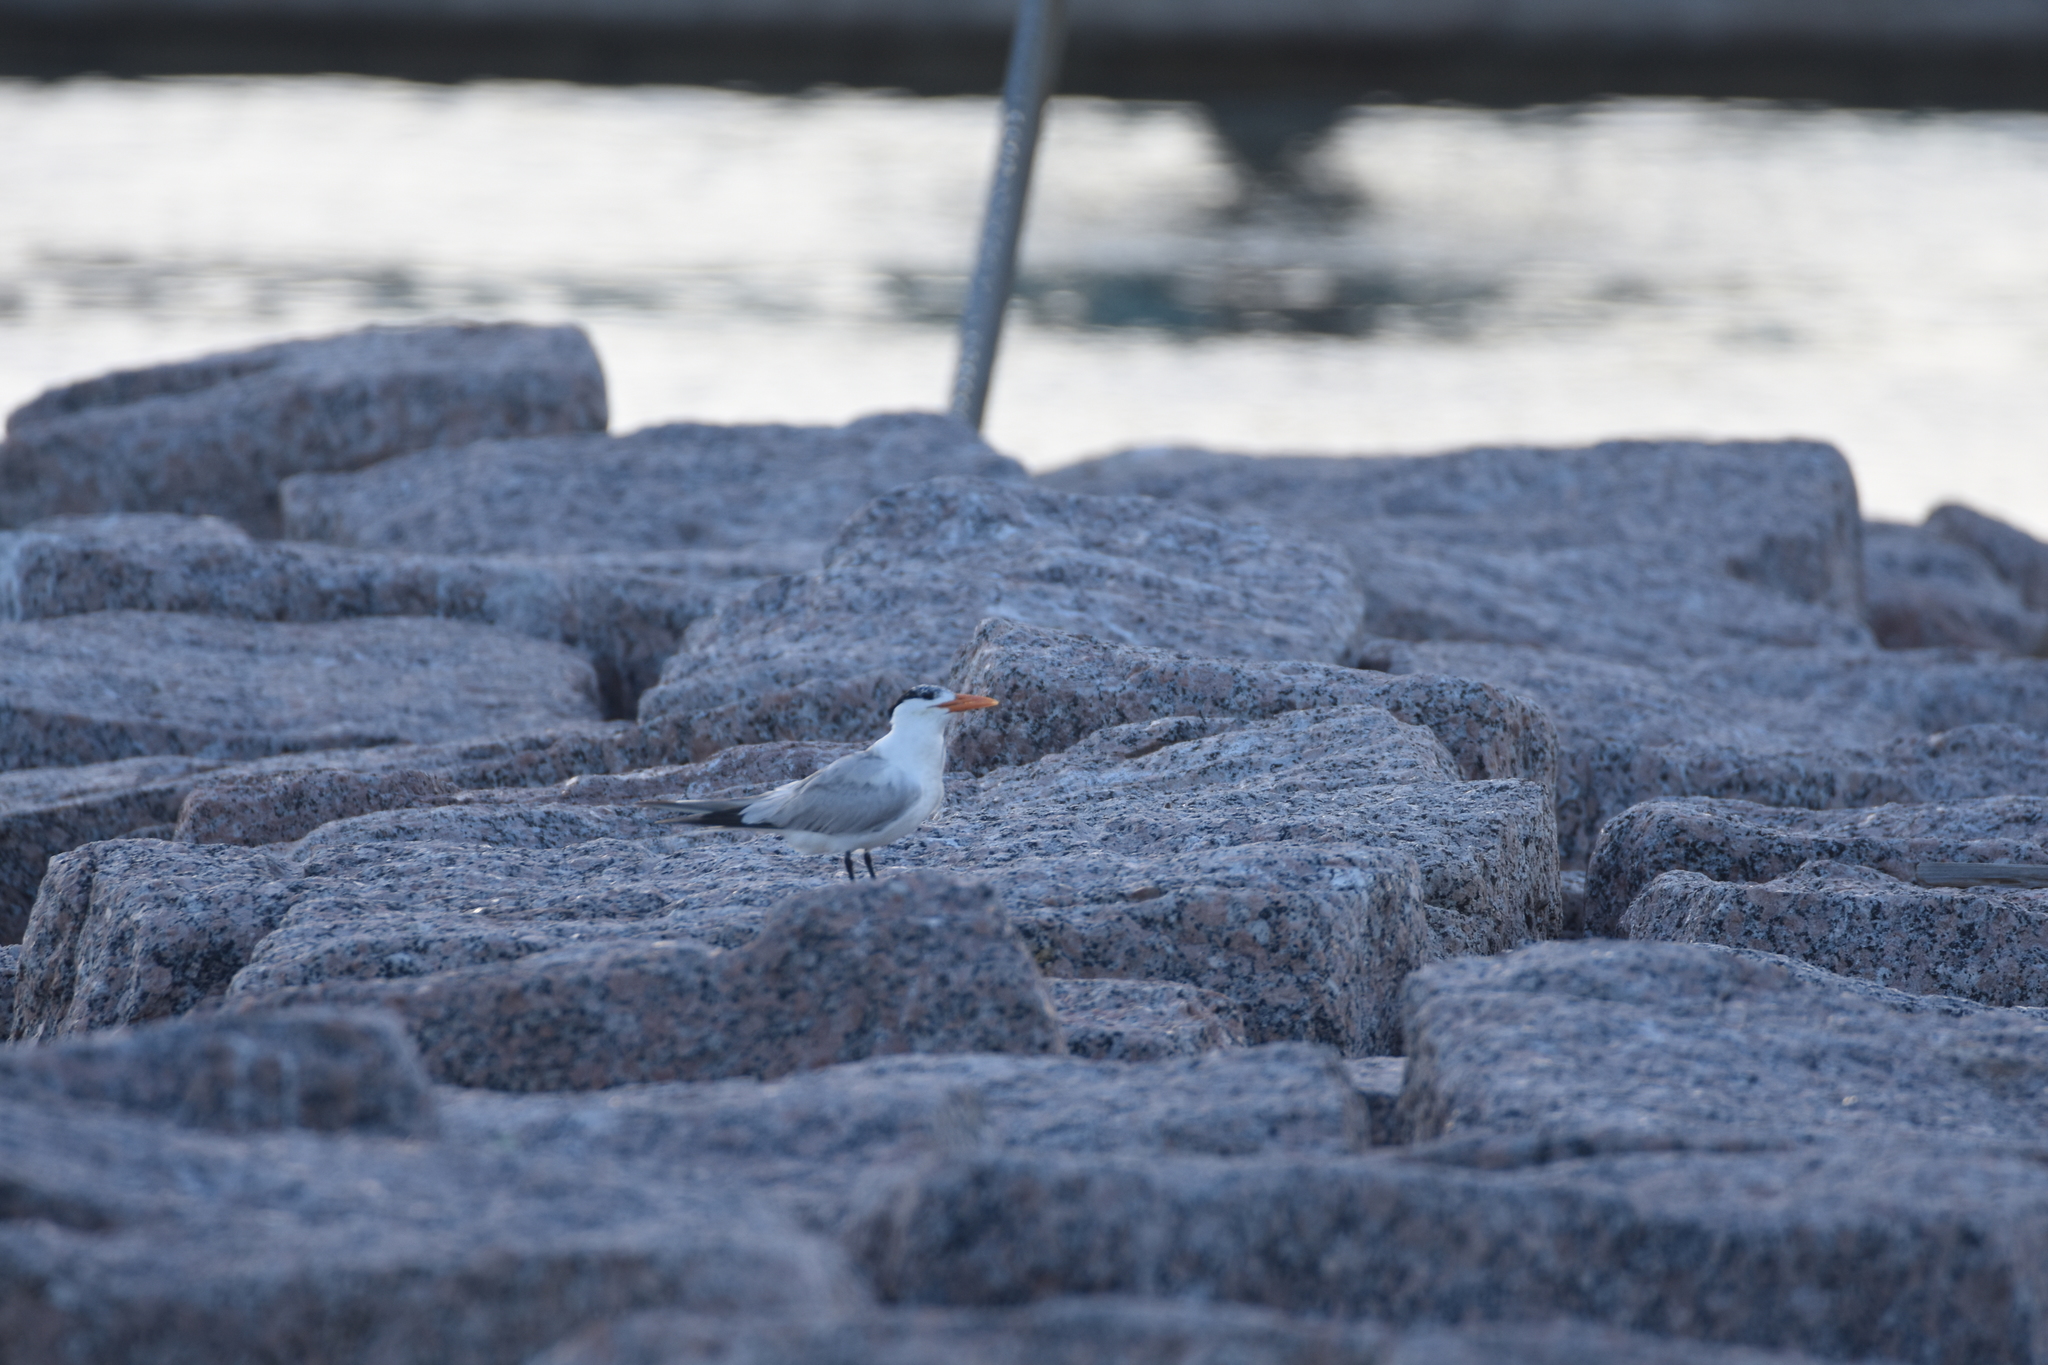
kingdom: Animalia
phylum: Chordata
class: Aves
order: Charadriiformes
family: Laridae
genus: Thalasseus
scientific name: Thalasseus maximus
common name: Royal tern
